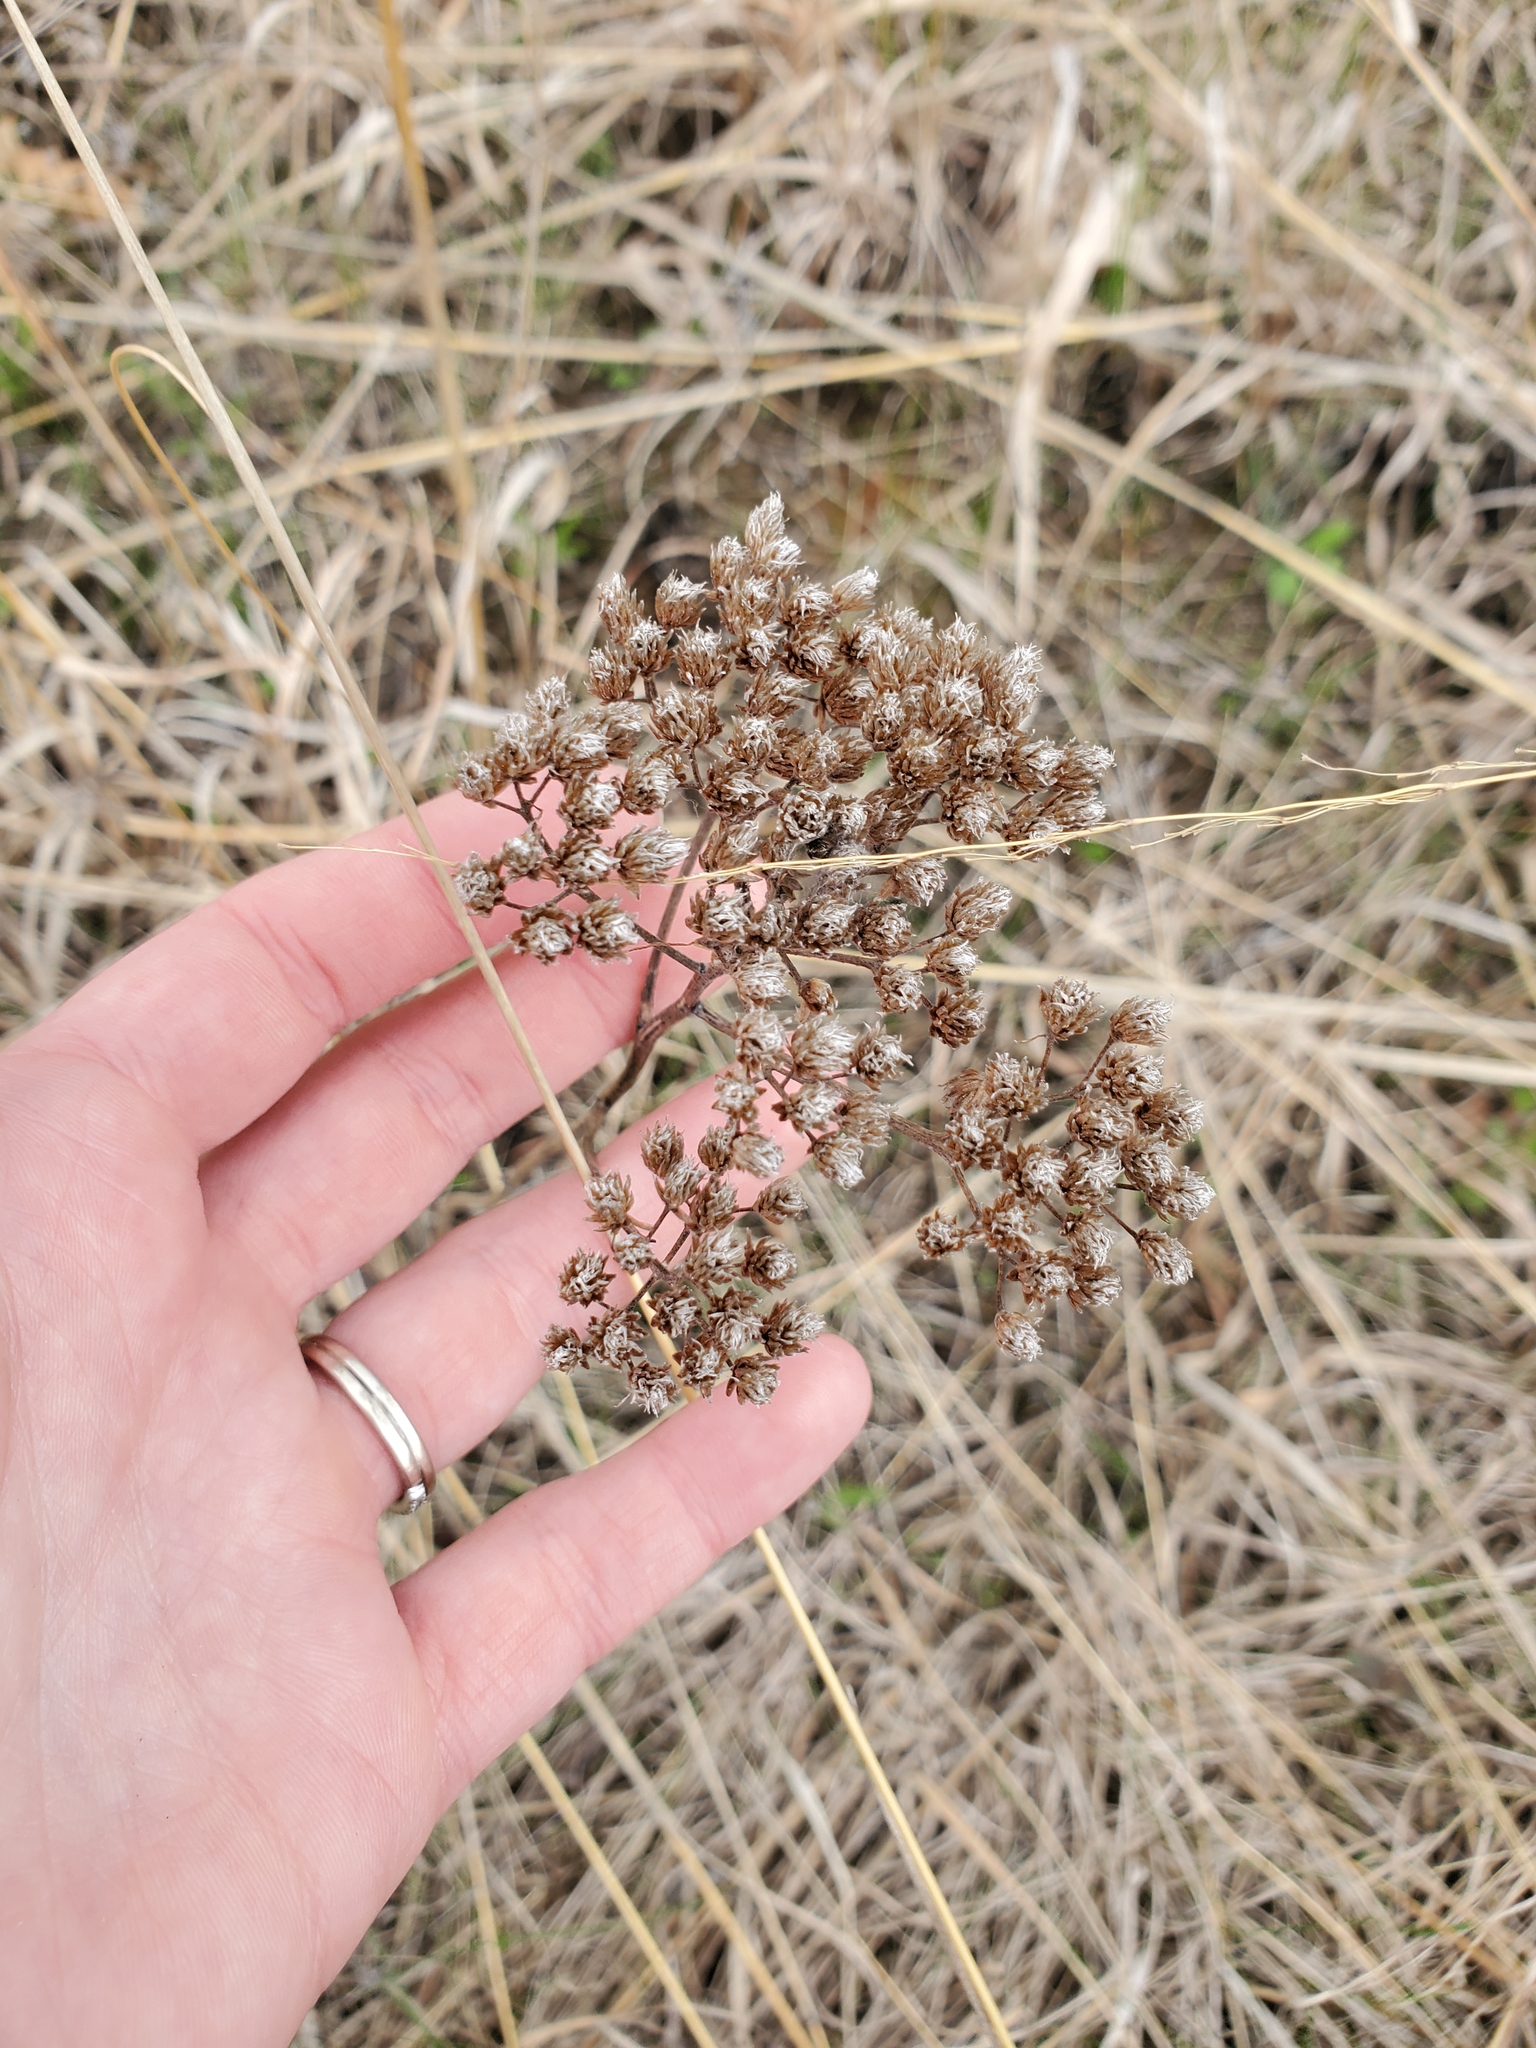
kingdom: Plantae
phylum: Tracheophyta
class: Magnoliopsida
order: Asterales
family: Asteraceae
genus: Achillea
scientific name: Achillea millefolium
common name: Yarrow
